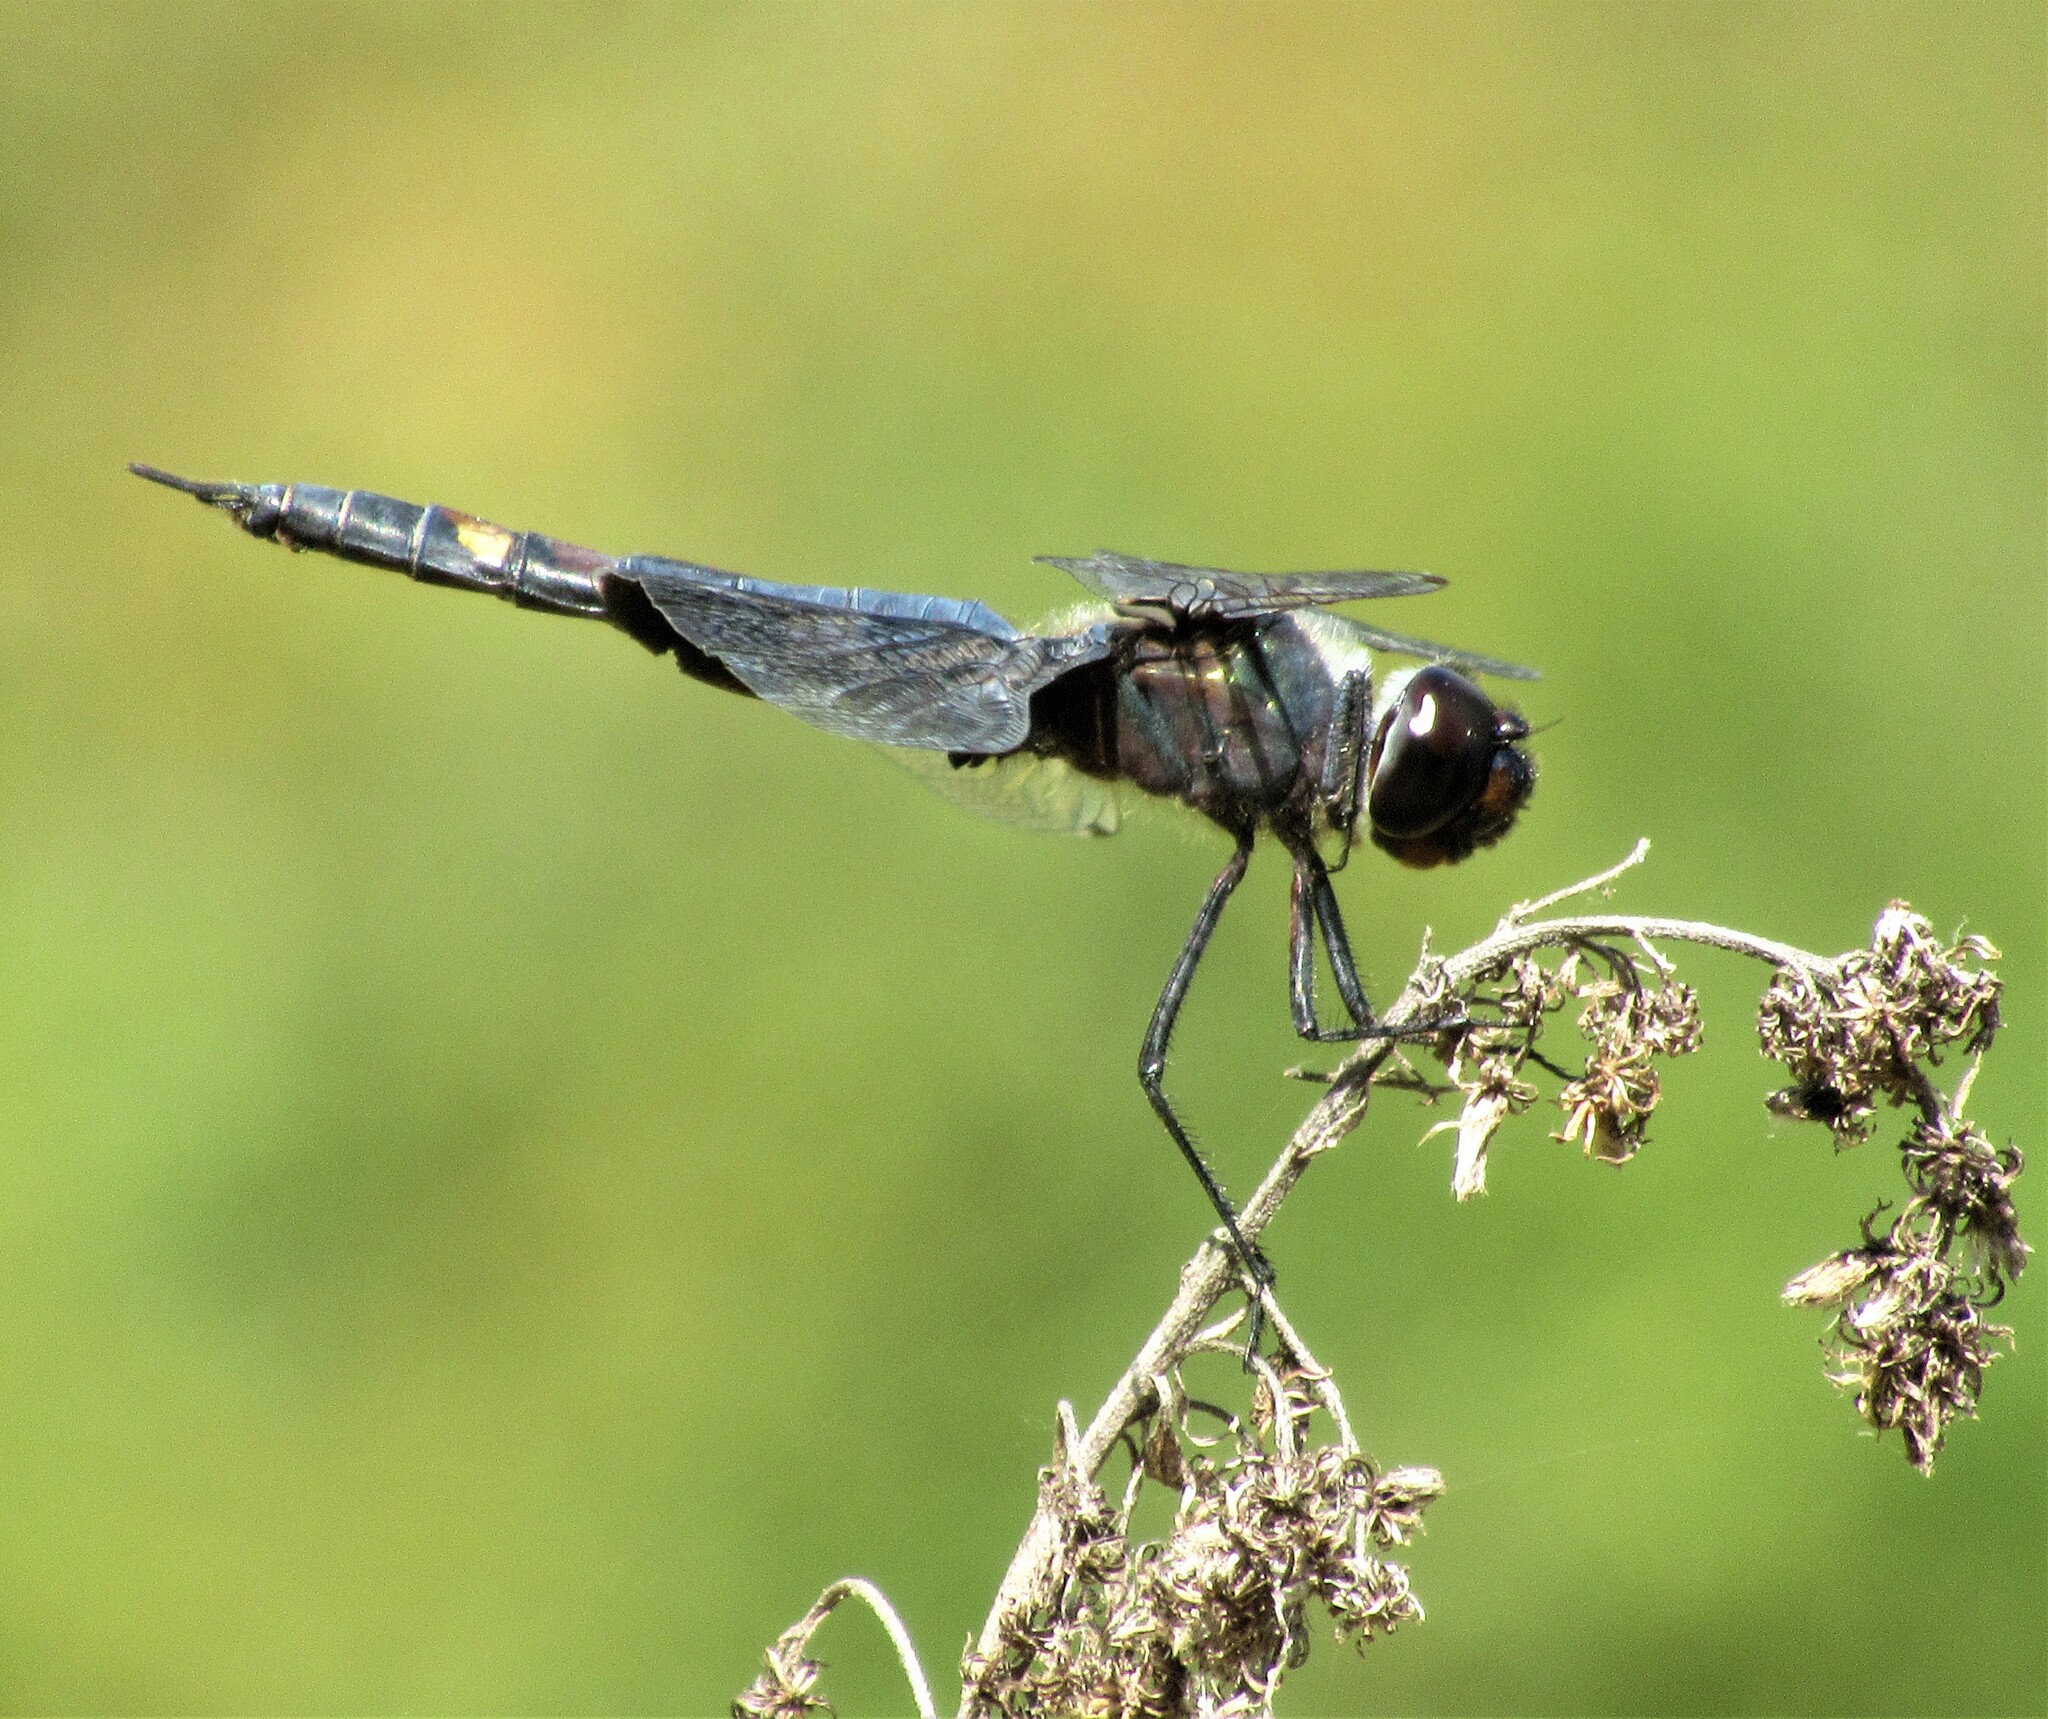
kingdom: Animalia
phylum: Arthropoda
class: Insecta
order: Odonata
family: Libellulidae
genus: Tramea
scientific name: Tramea lacerata
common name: Black saddlebags
